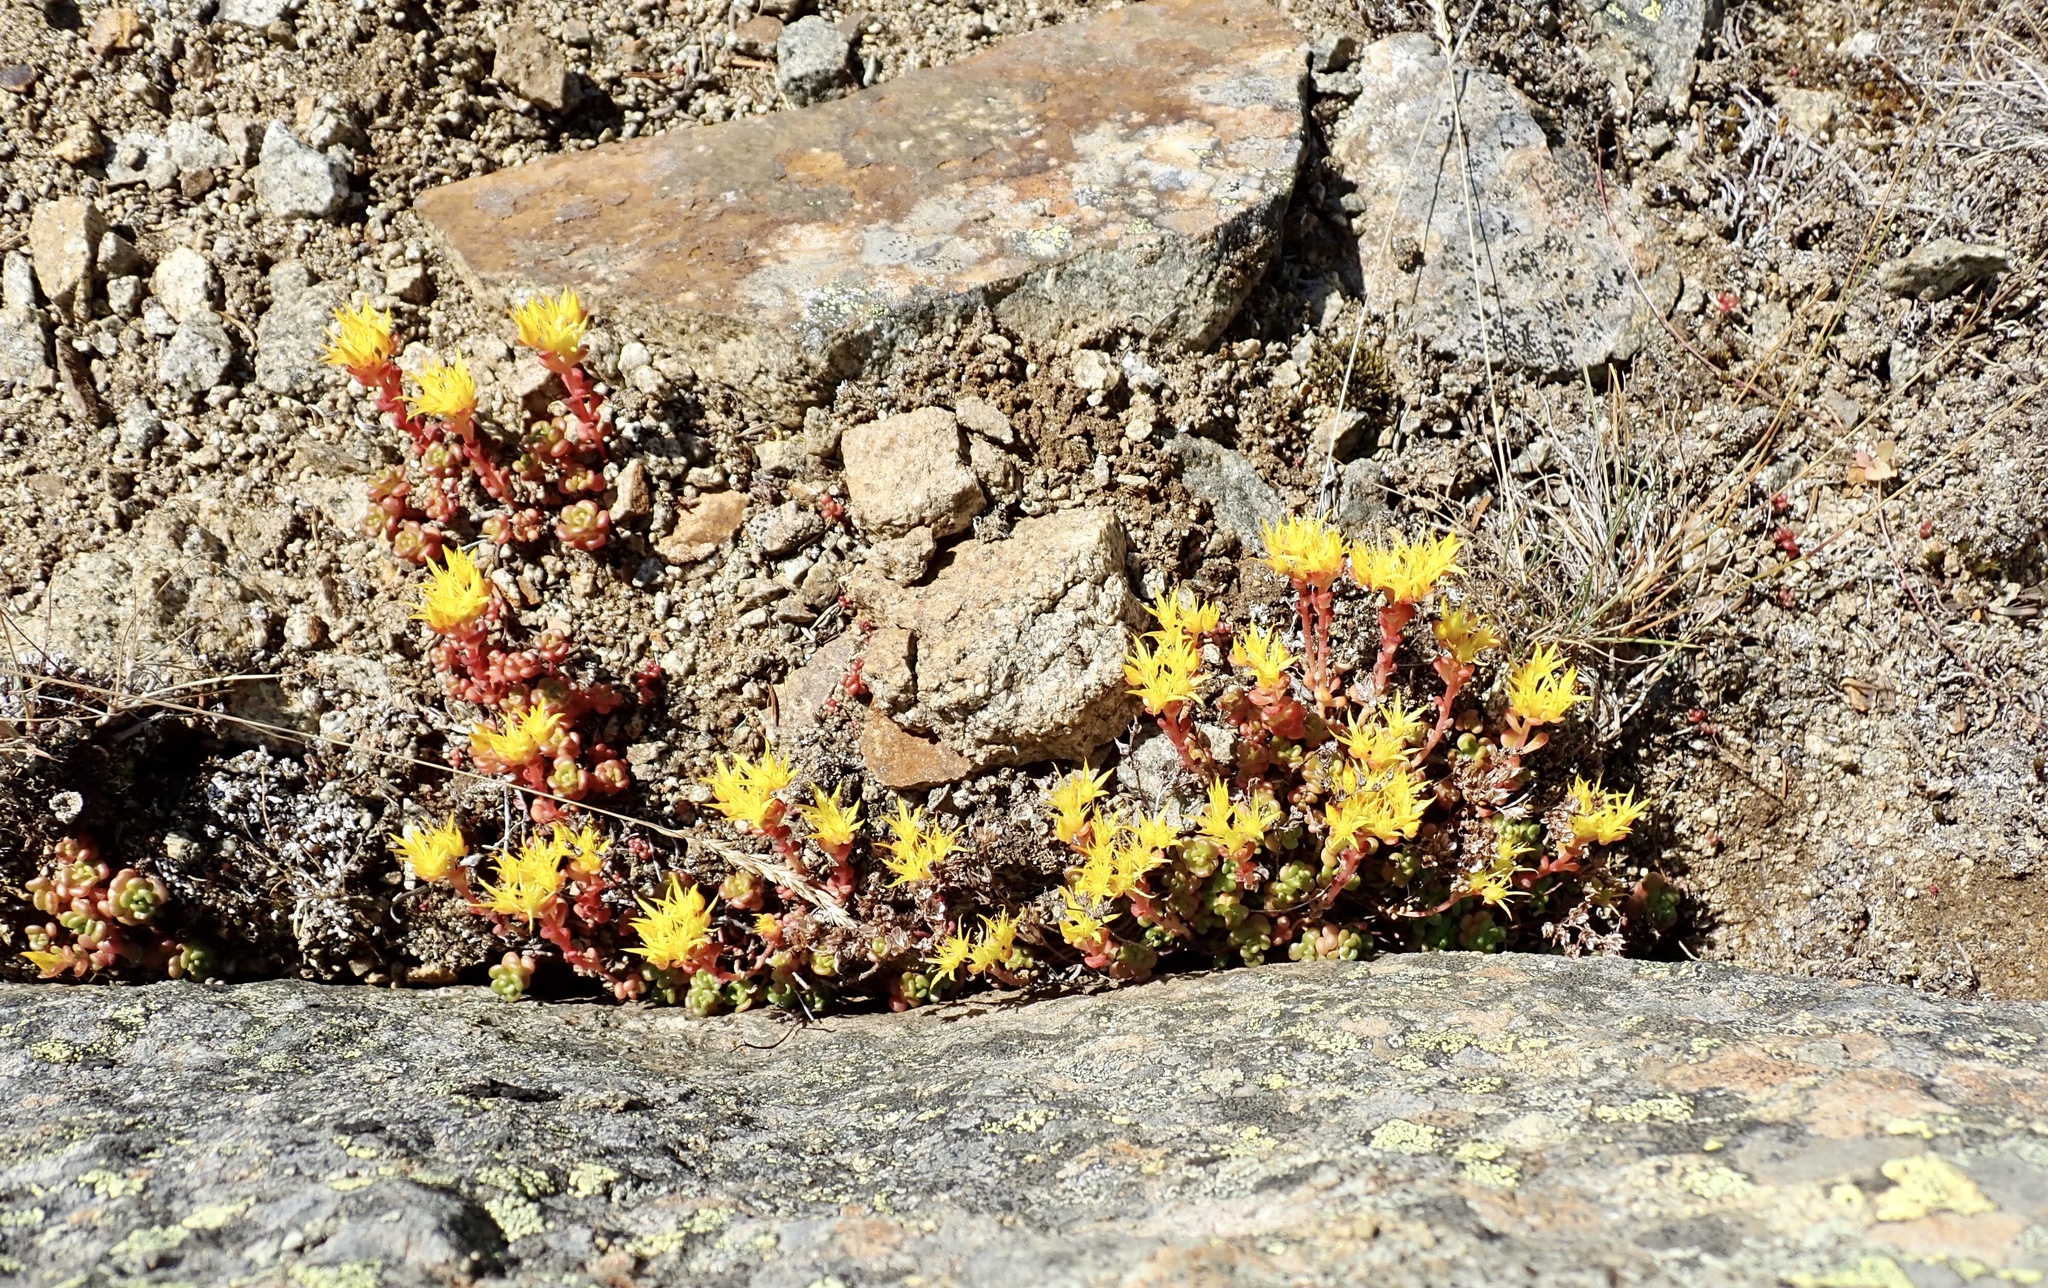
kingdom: Plantae
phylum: Tracheophyta
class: Magnoliopsida
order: Saxifragales
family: Crassulaceae
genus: Sedum
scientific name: Sedum oreganum
